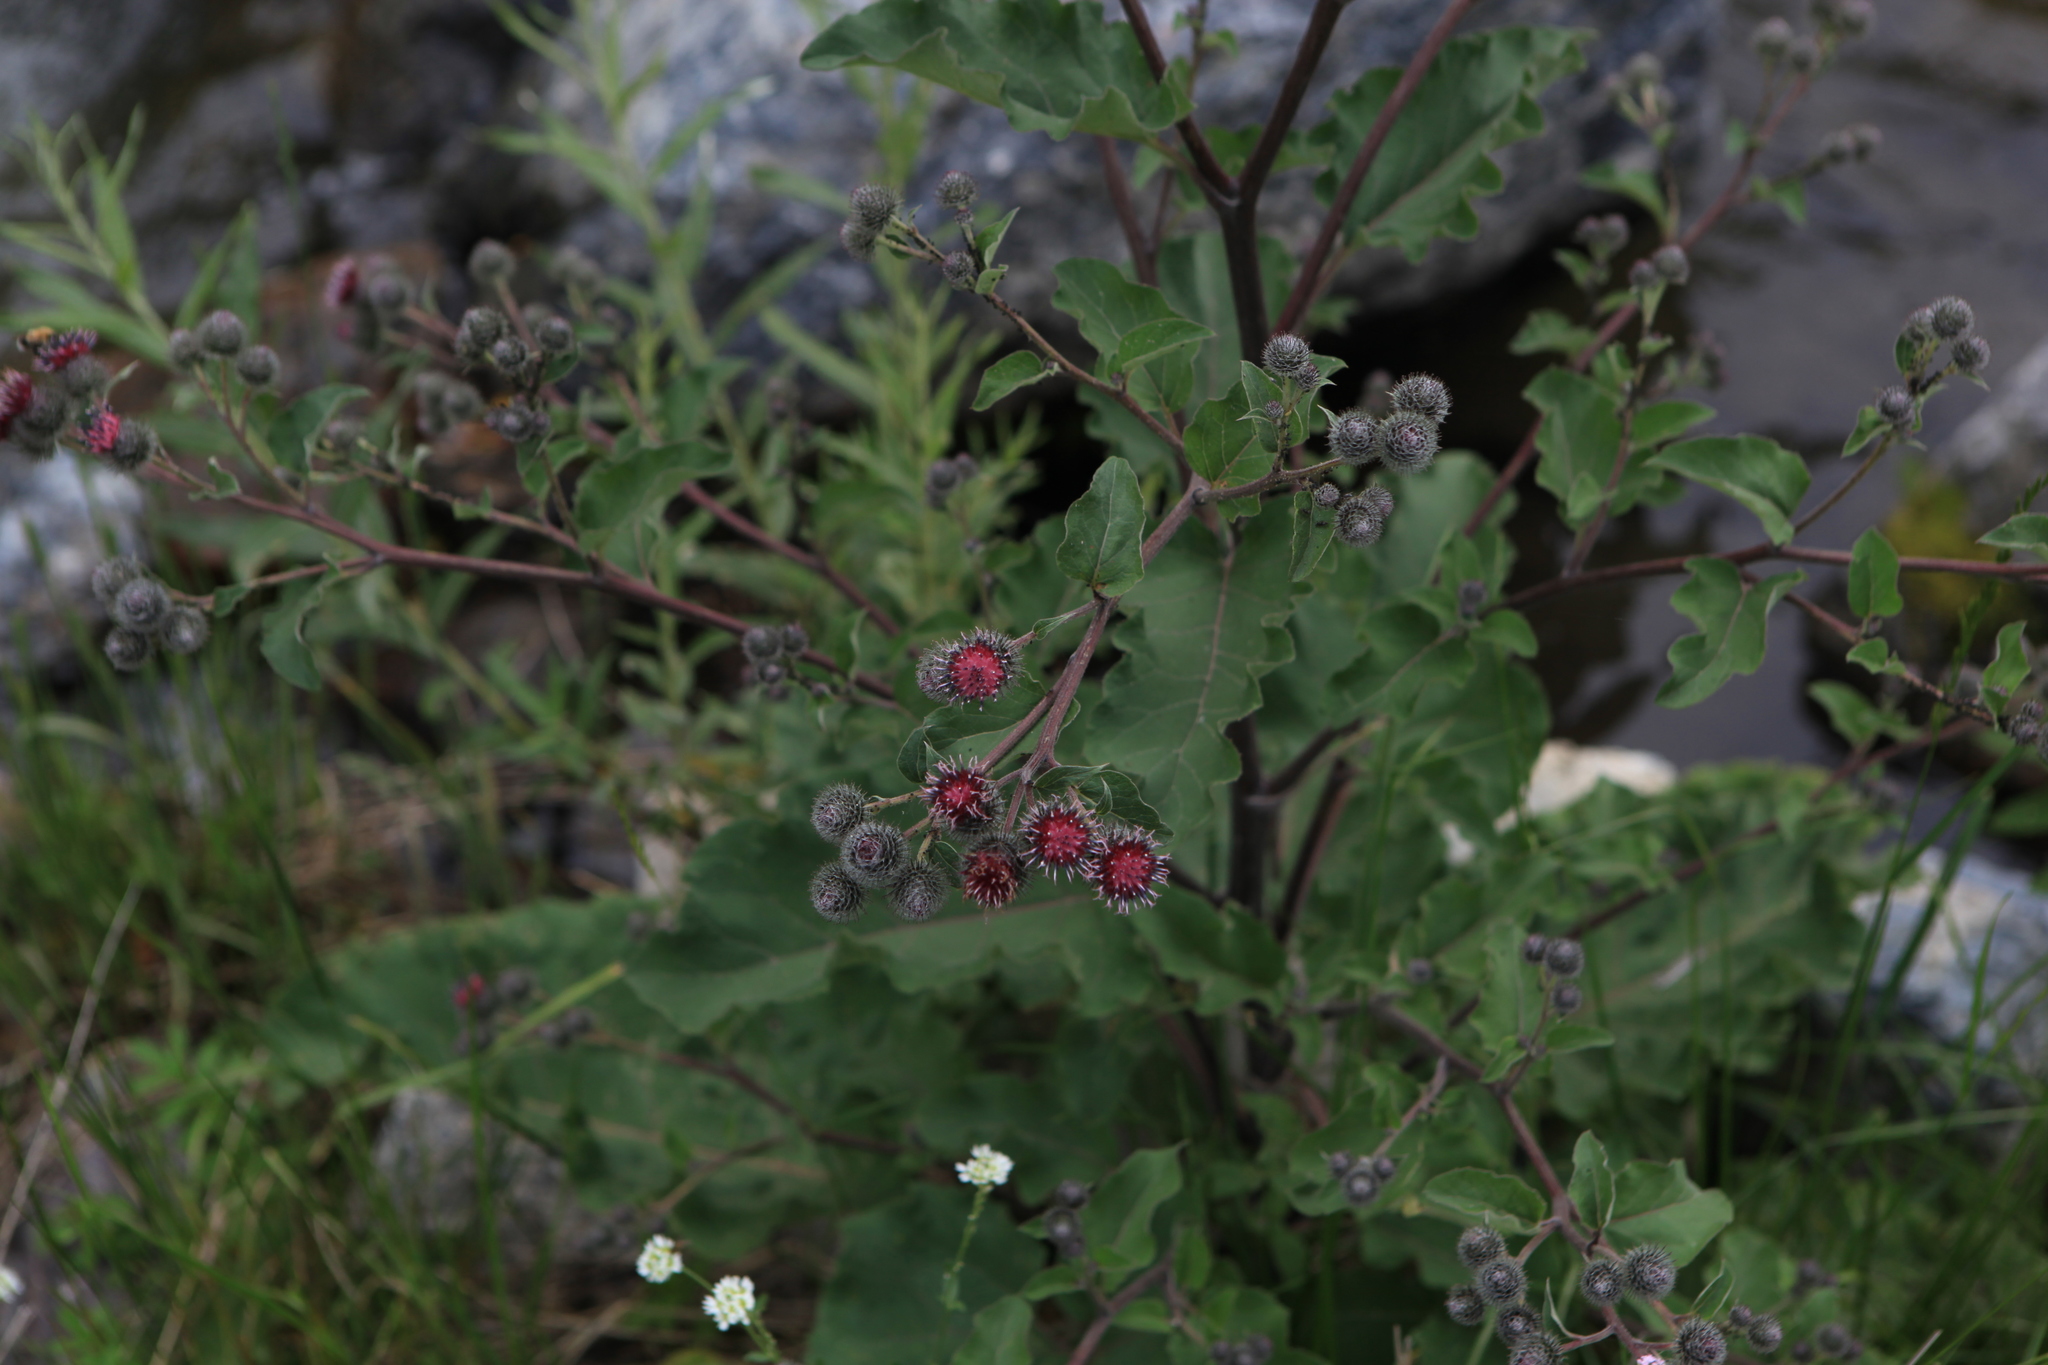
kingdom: Plantae
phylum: Tracheophyta
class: Magnoliopsida
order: Asterales
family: Asteraceae
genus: Arctium
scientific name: Arctium tomentosum
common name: Woolly burdock
